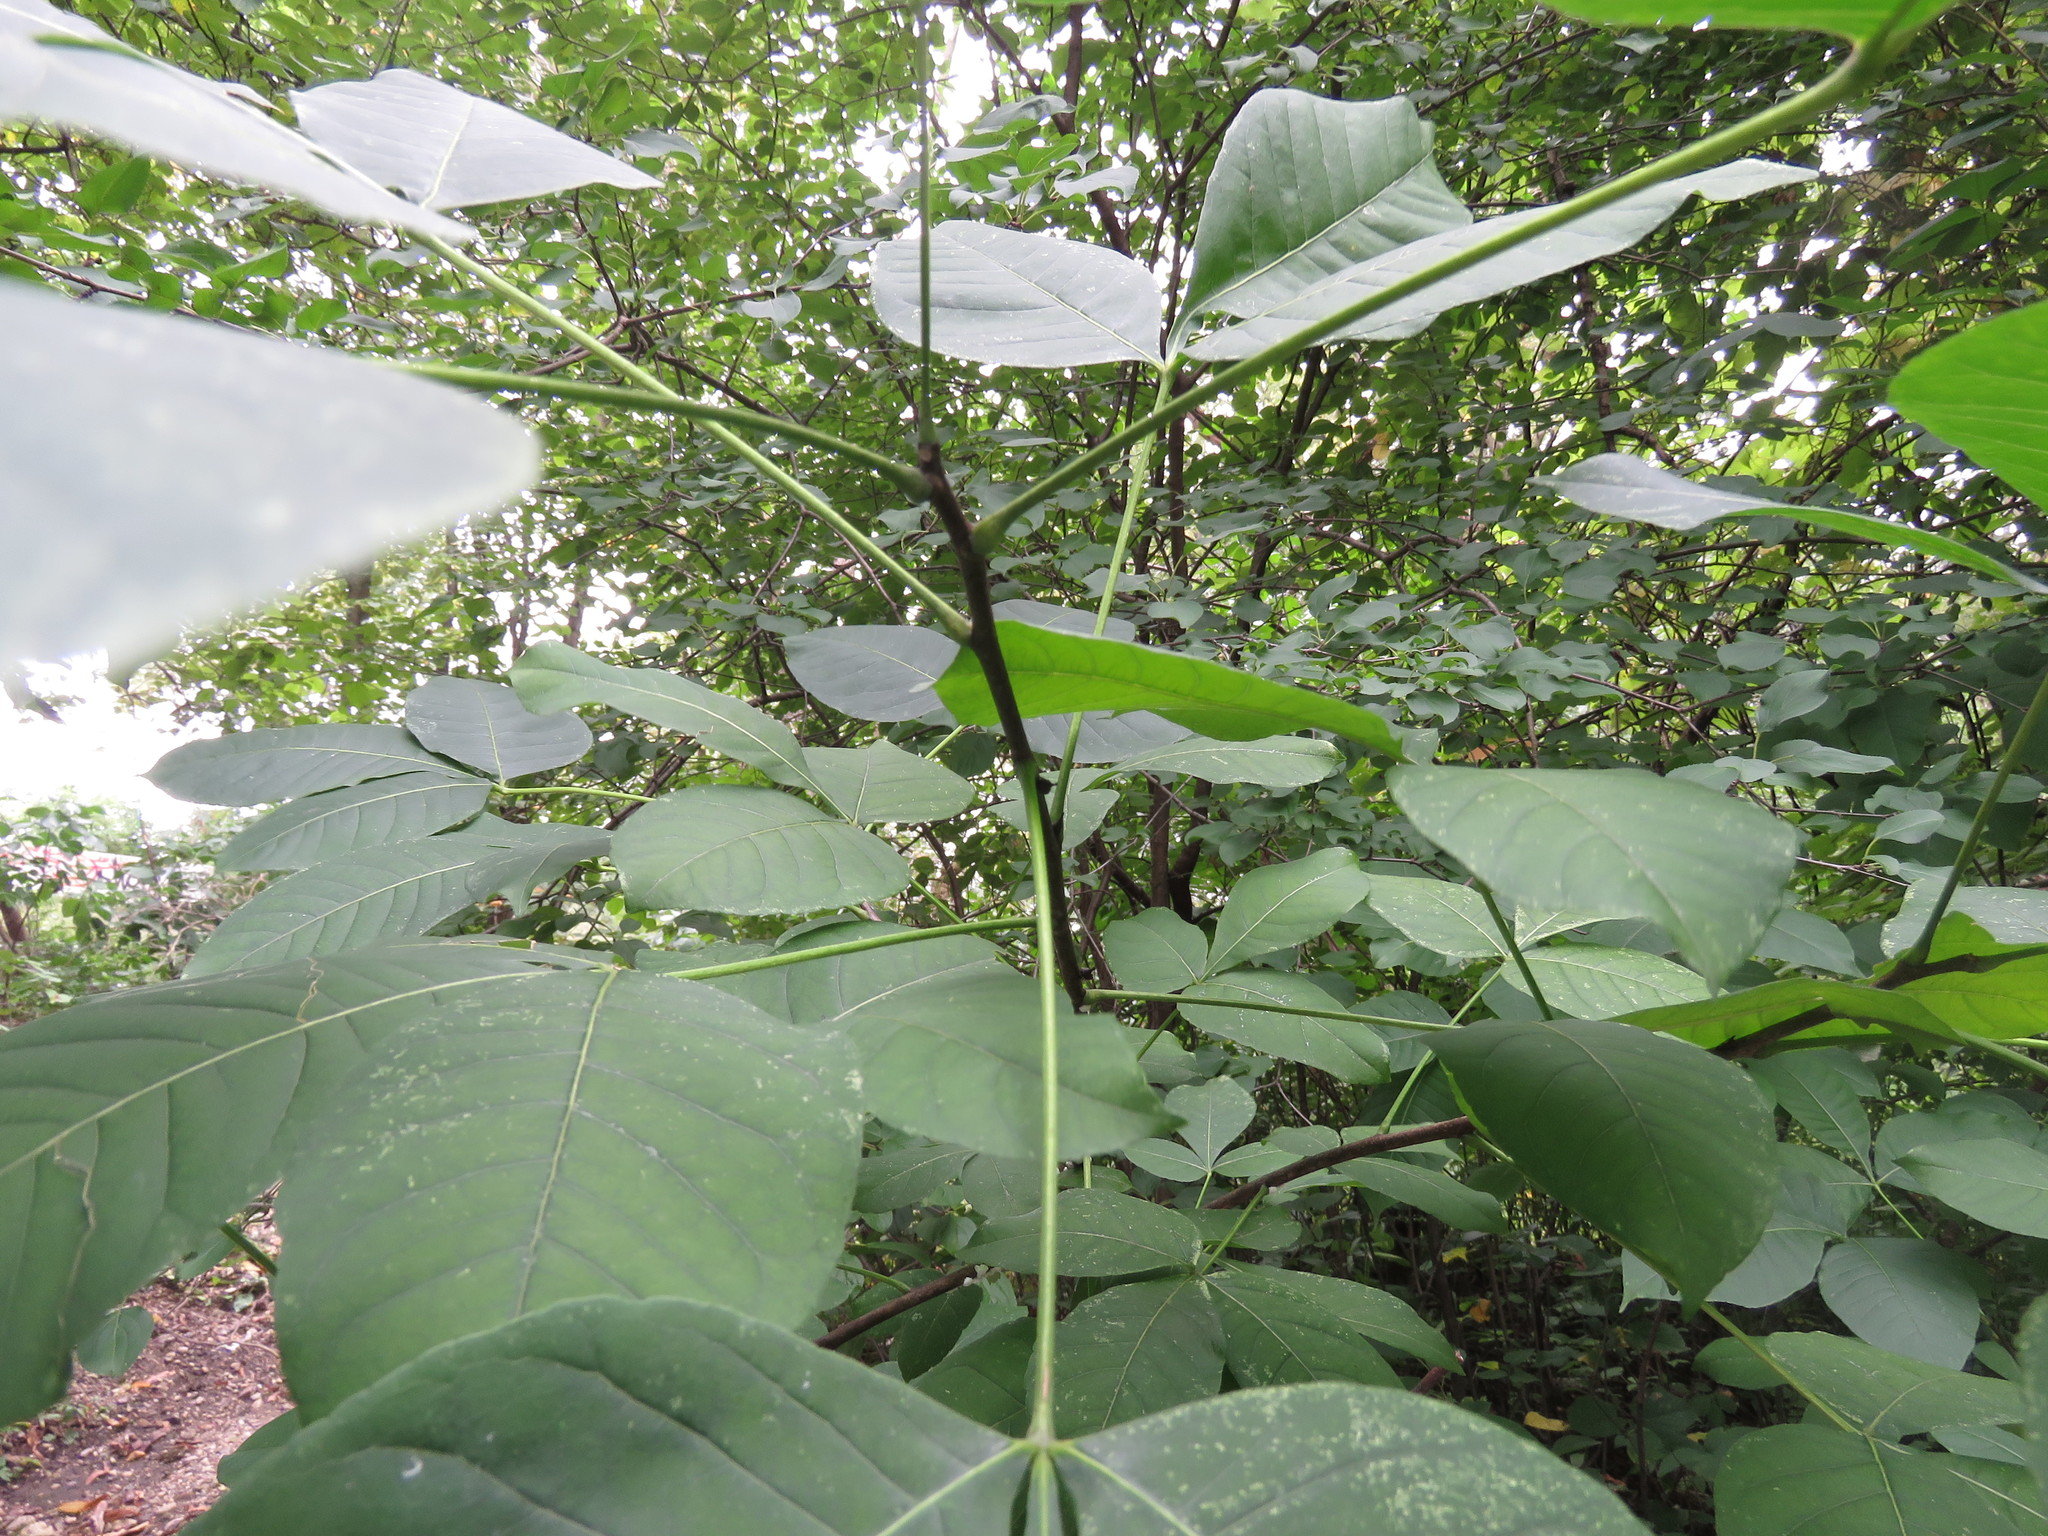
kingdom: Plantae
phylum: Tracheophyta
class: Magnoliopsida
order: Sapindales
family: Rutaceae
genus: Ptelea
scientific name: Ptelea trifoliata
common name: Common hop-tree
